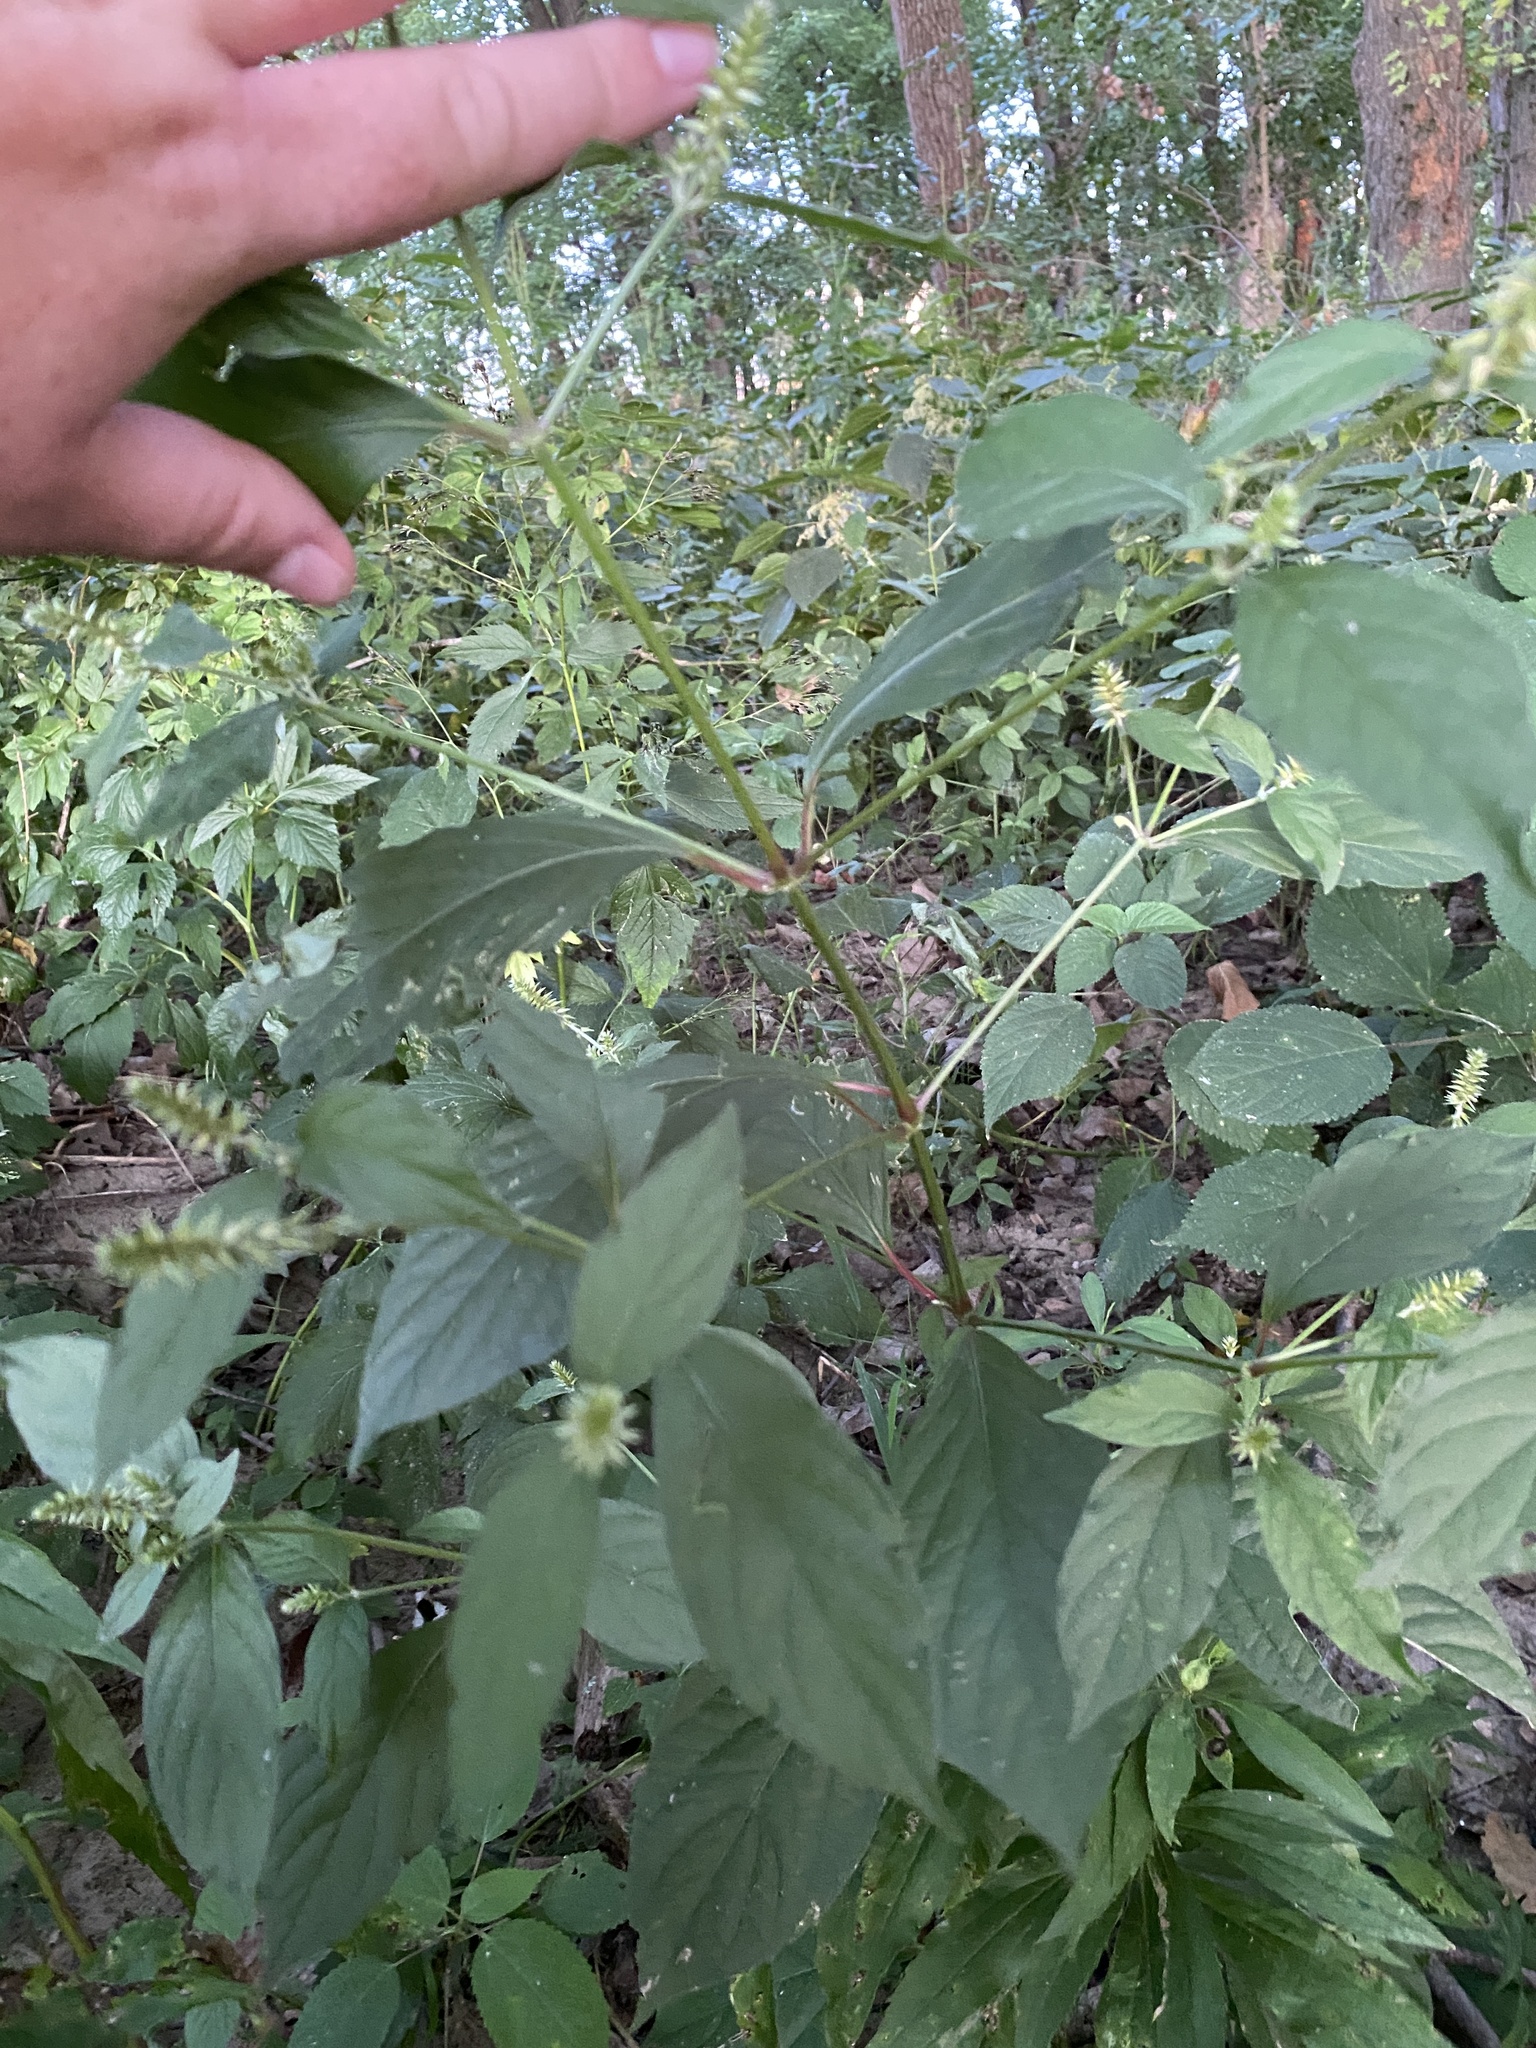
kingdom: Plantae
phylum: Tracheophyta
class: Magnoliopsida
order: Caryophyllales
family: Amaranthaceae
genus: Achyranthes
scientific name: Achyranthes bidentata
